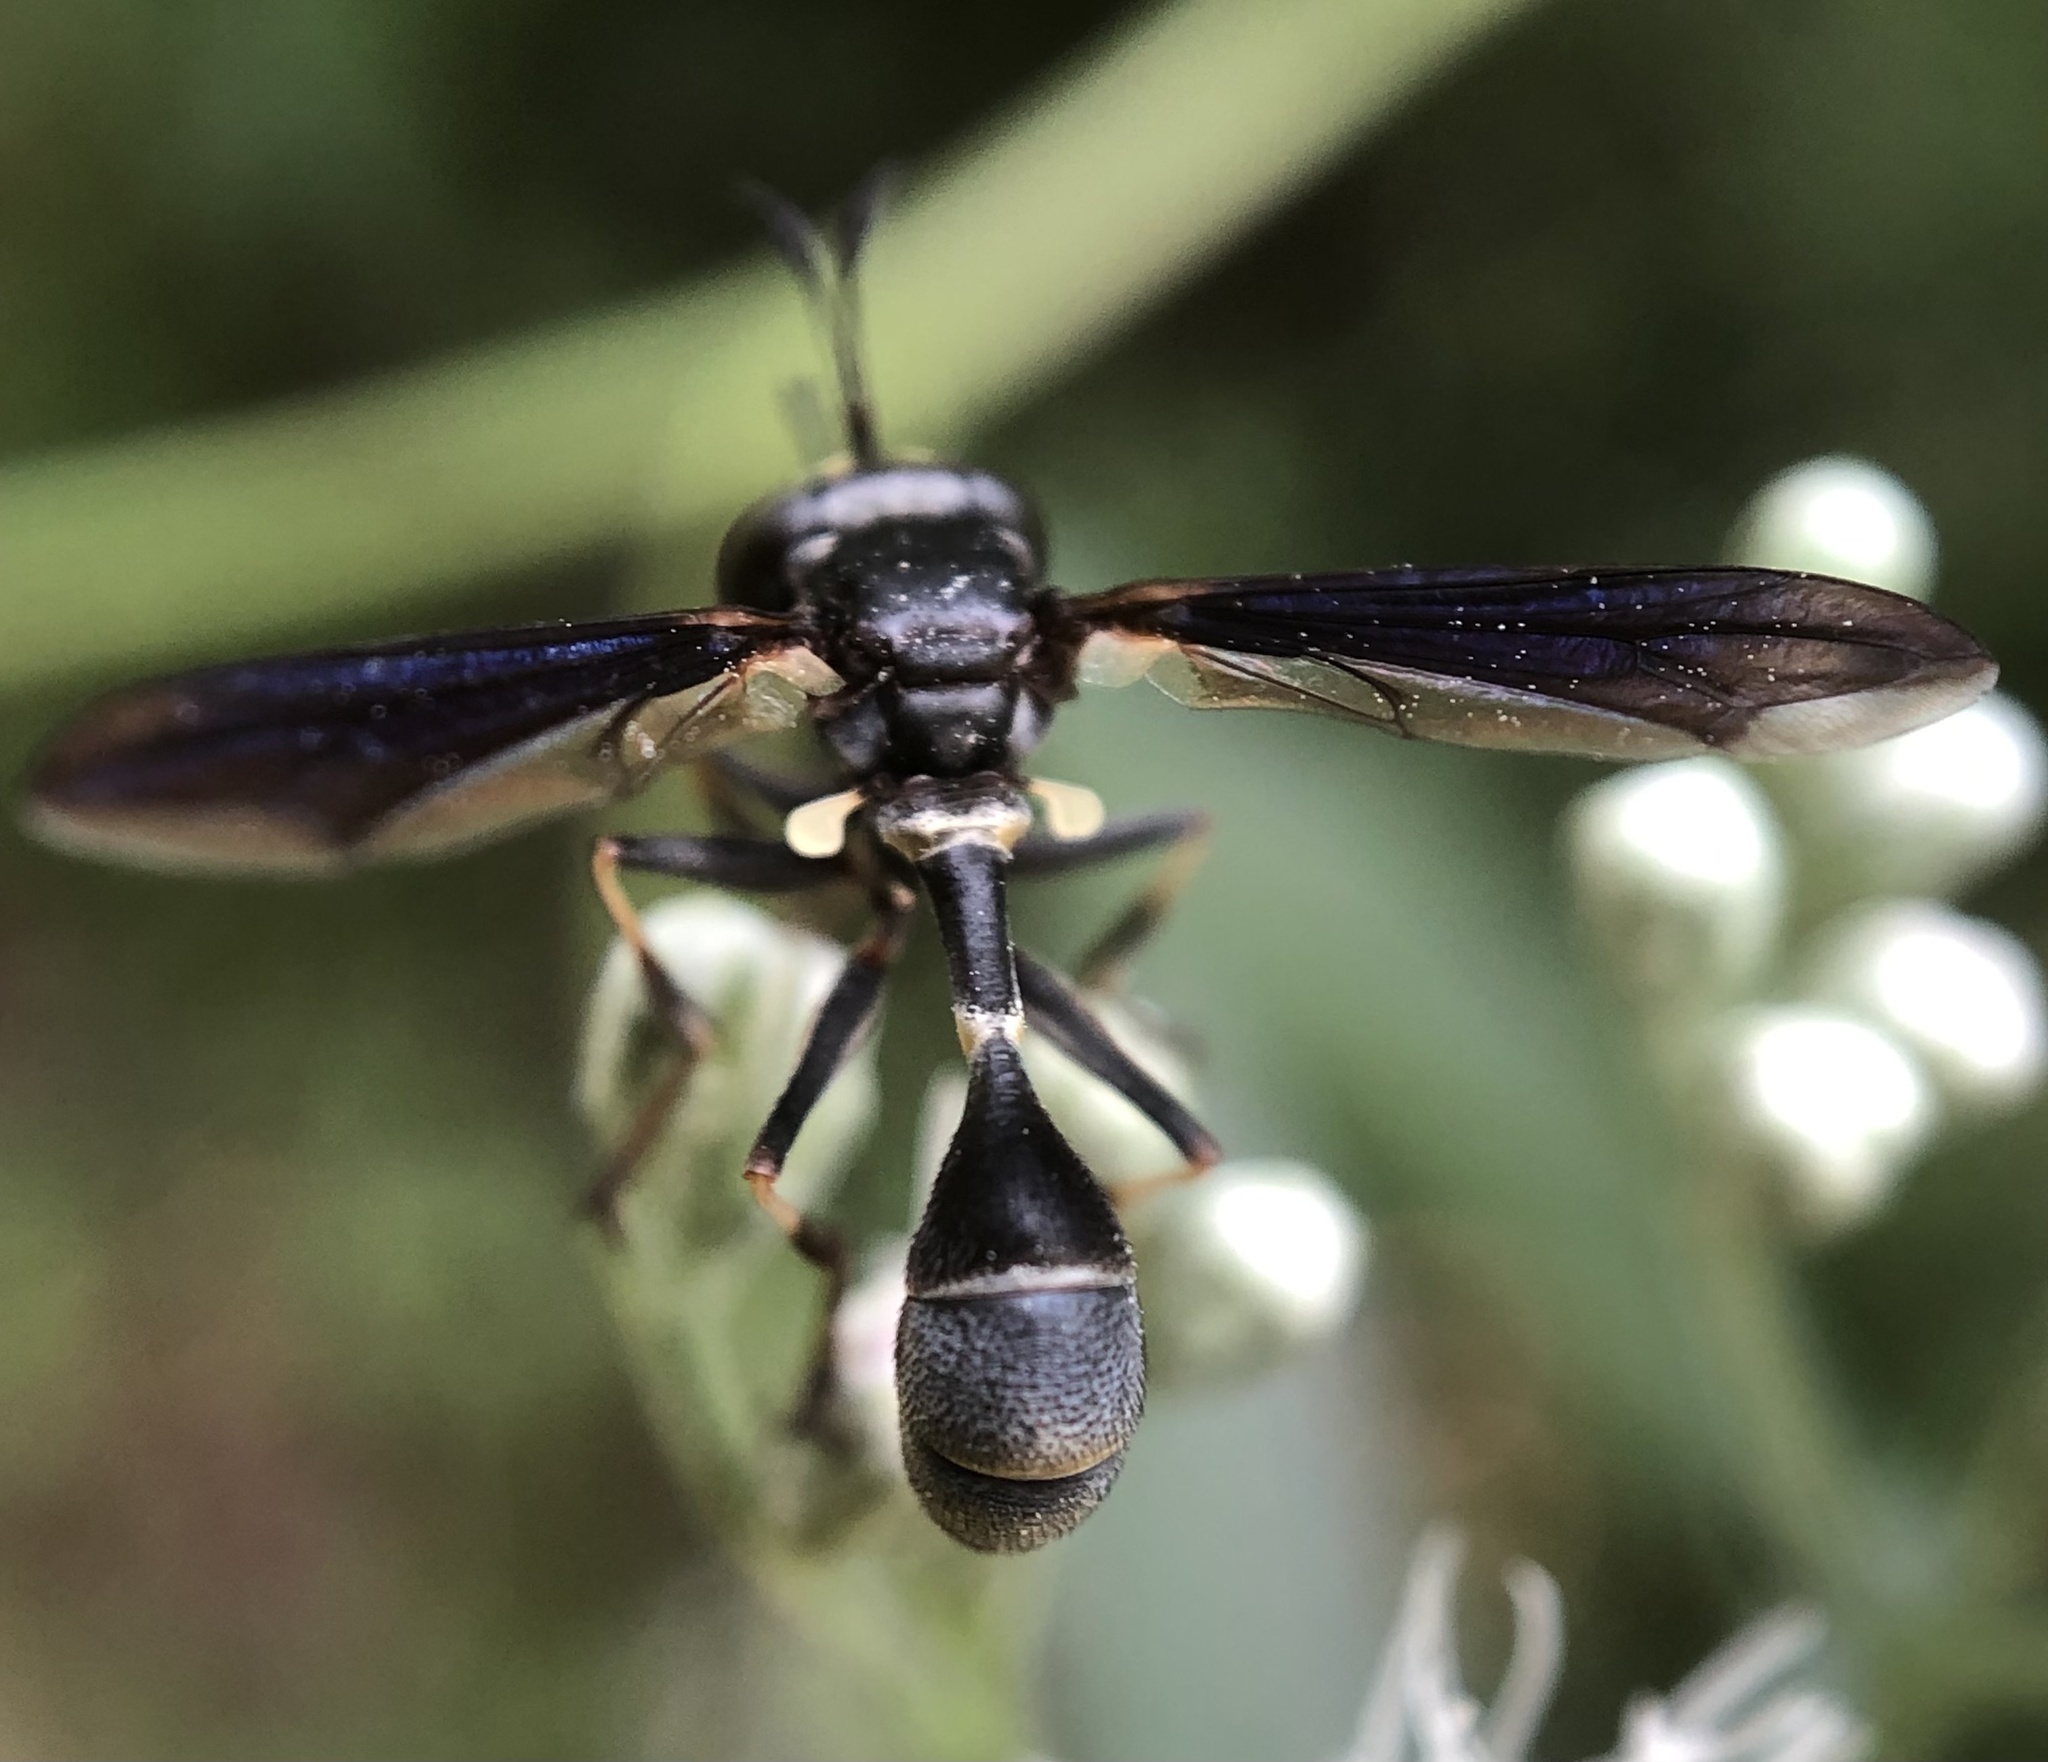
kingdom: Animalia
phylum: Arthropoda
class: Insecta
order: Diptera
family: Conopidae
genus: Physocephala
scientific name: Physocephala tibialis
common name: Common eastern physocephala
